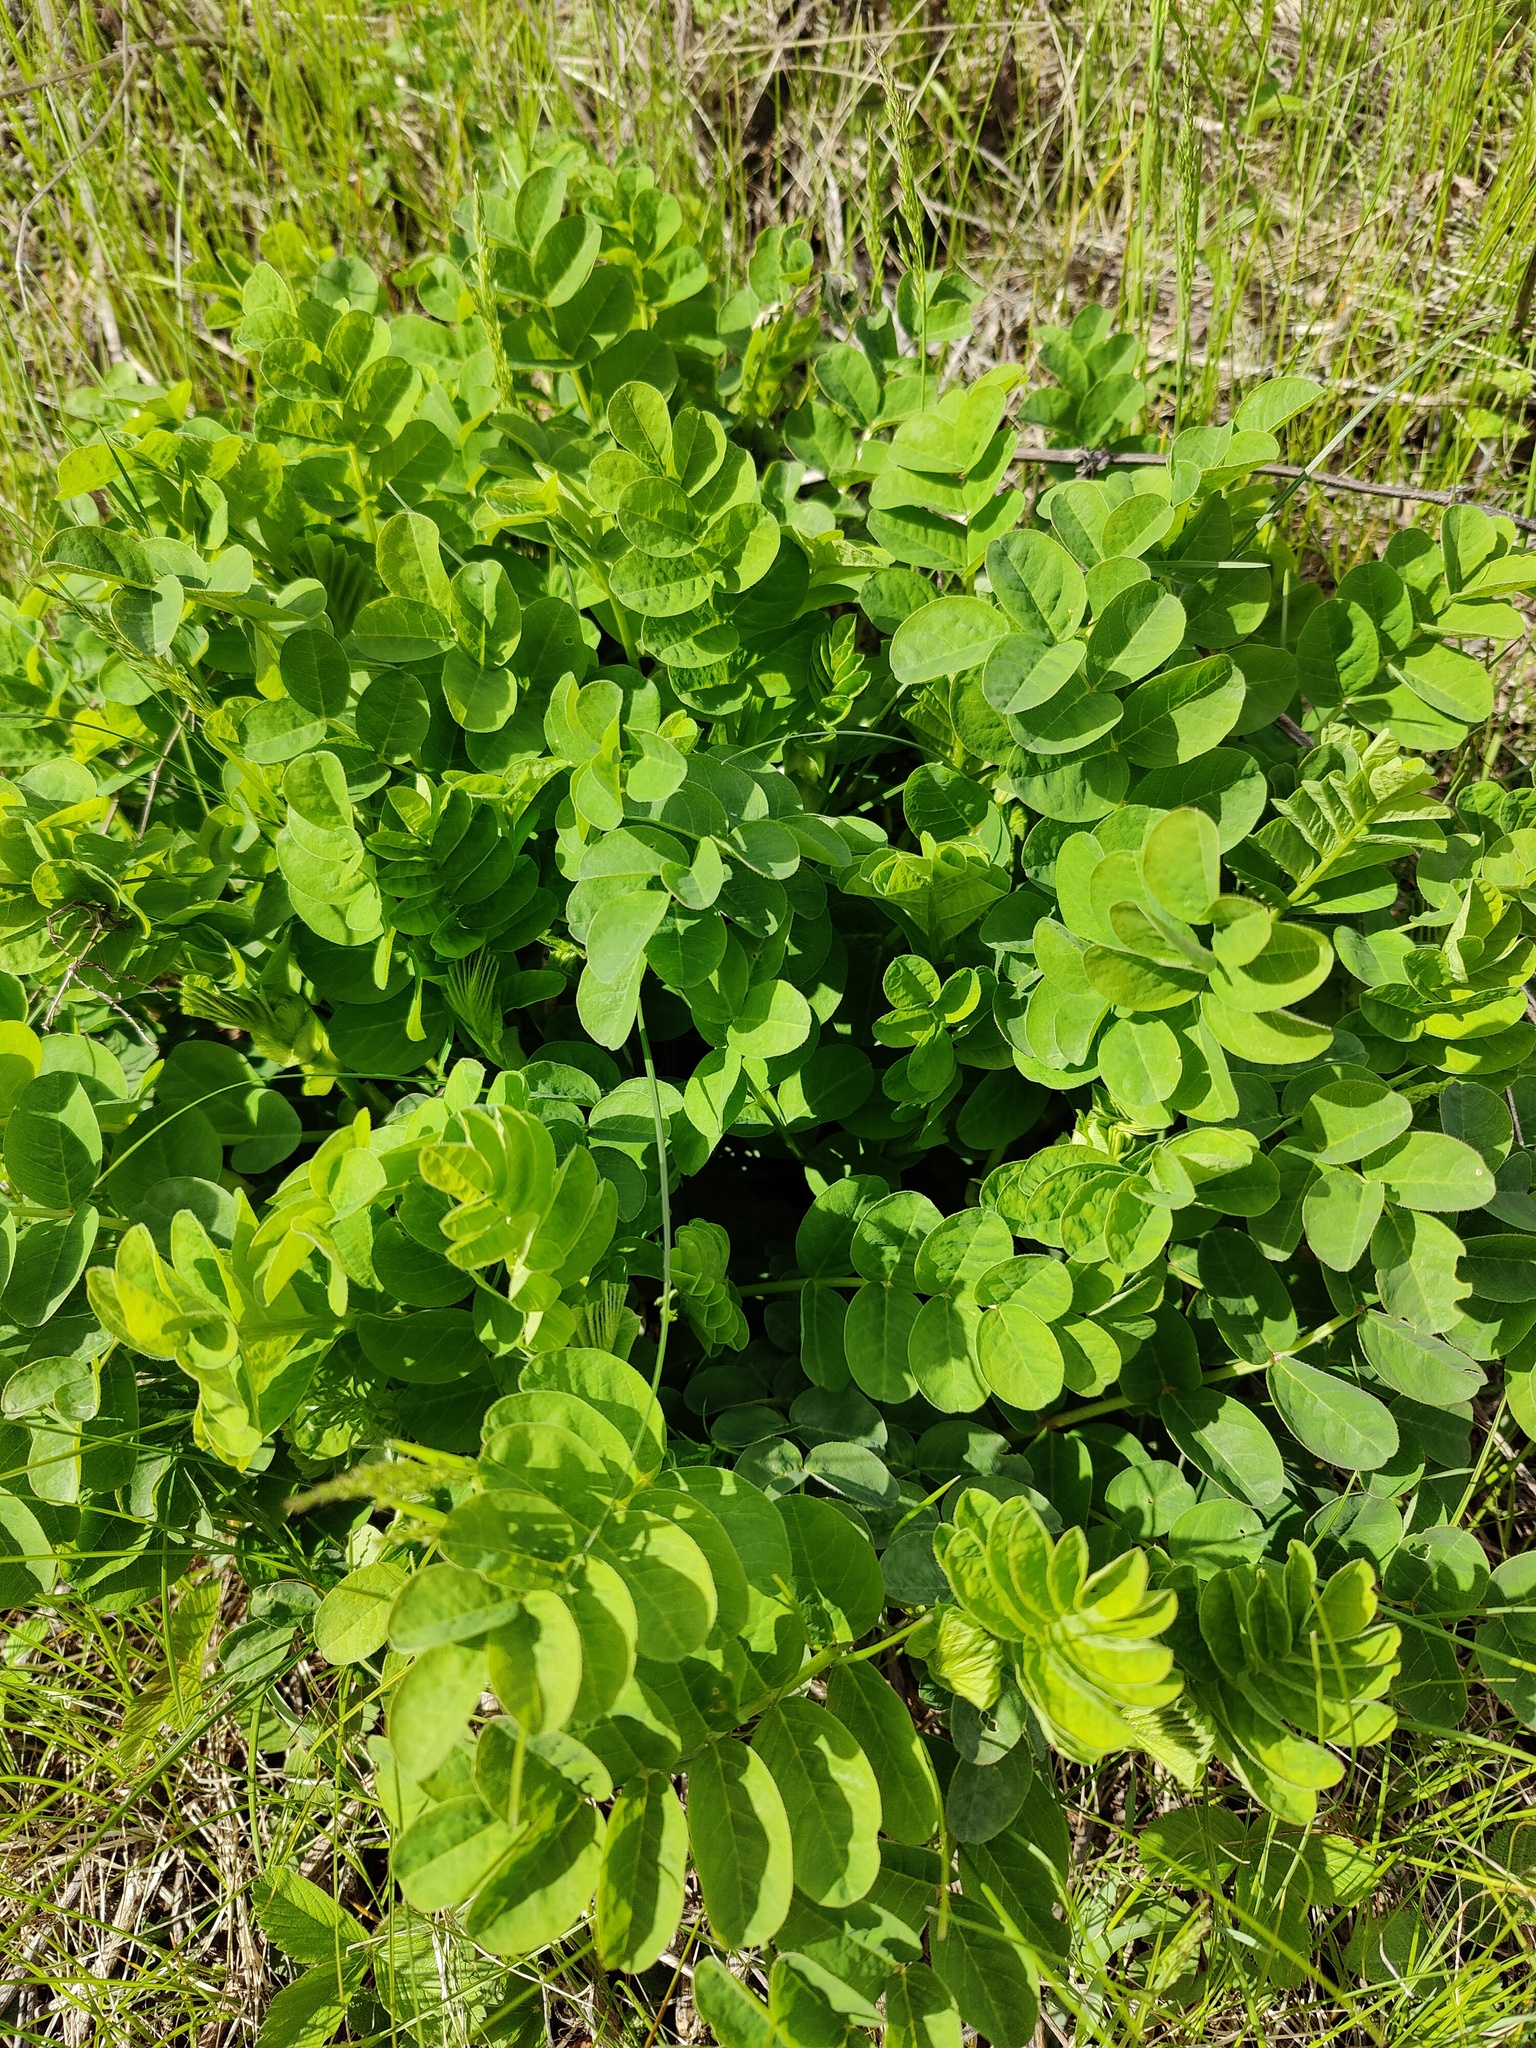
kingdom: Plantae
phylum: Tracheophyta
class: Magnoliopsida
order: Fabales
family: Fabaceae
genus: Astragalus
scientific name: Astragalus glycyphyllos
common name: Wild liquorice
